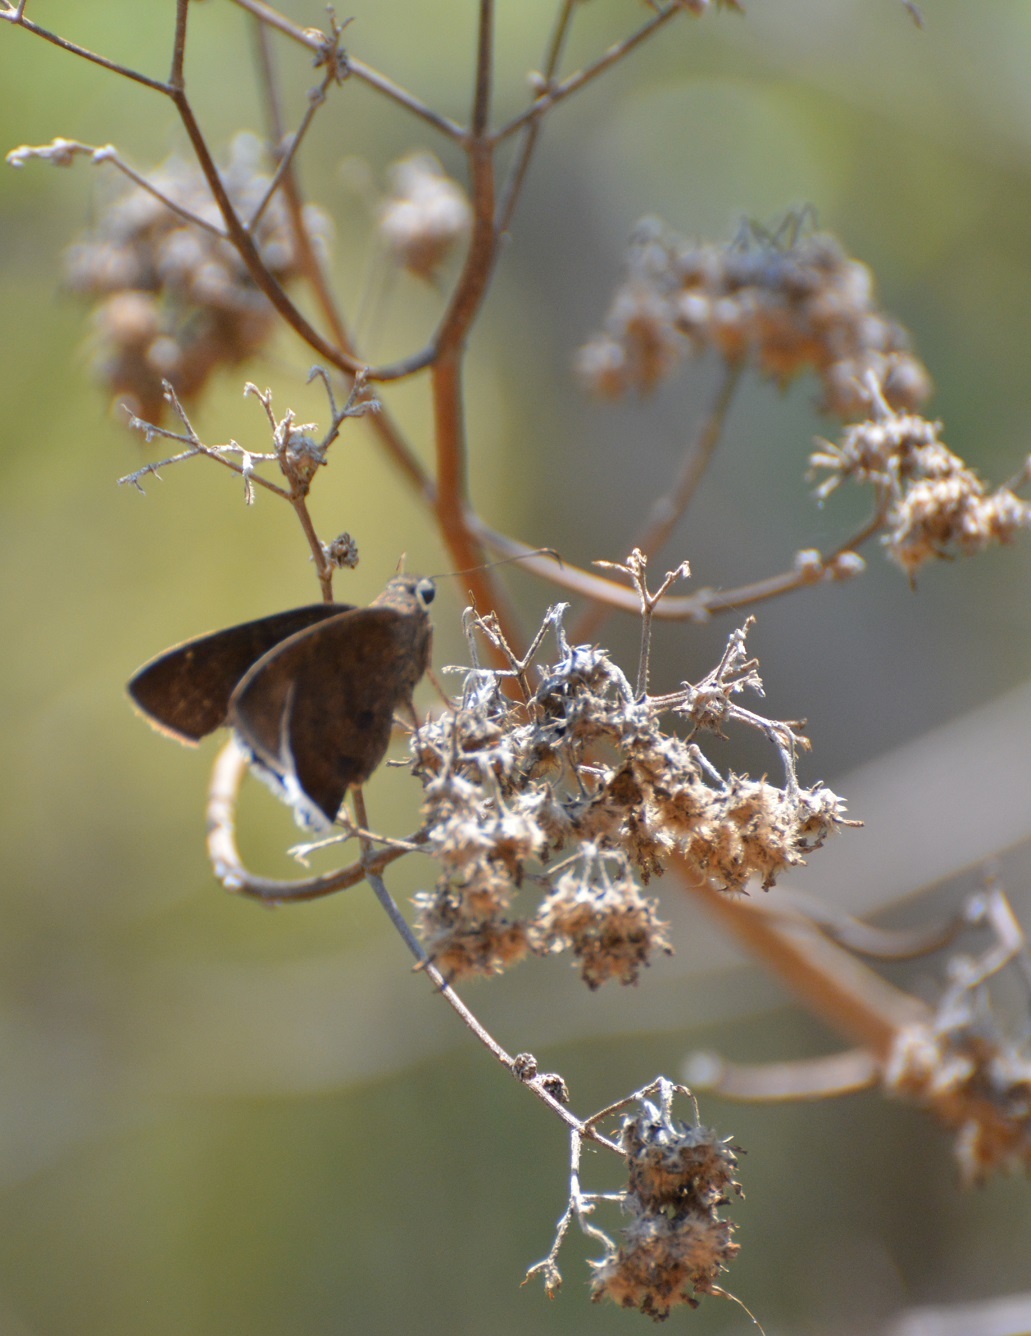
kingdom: Animalia
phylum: Arthropoda
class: Insecta
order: Lepidoptera
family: Hesperiidae
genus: Achalarus
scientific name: Achalarus Murgaria albociliatus
